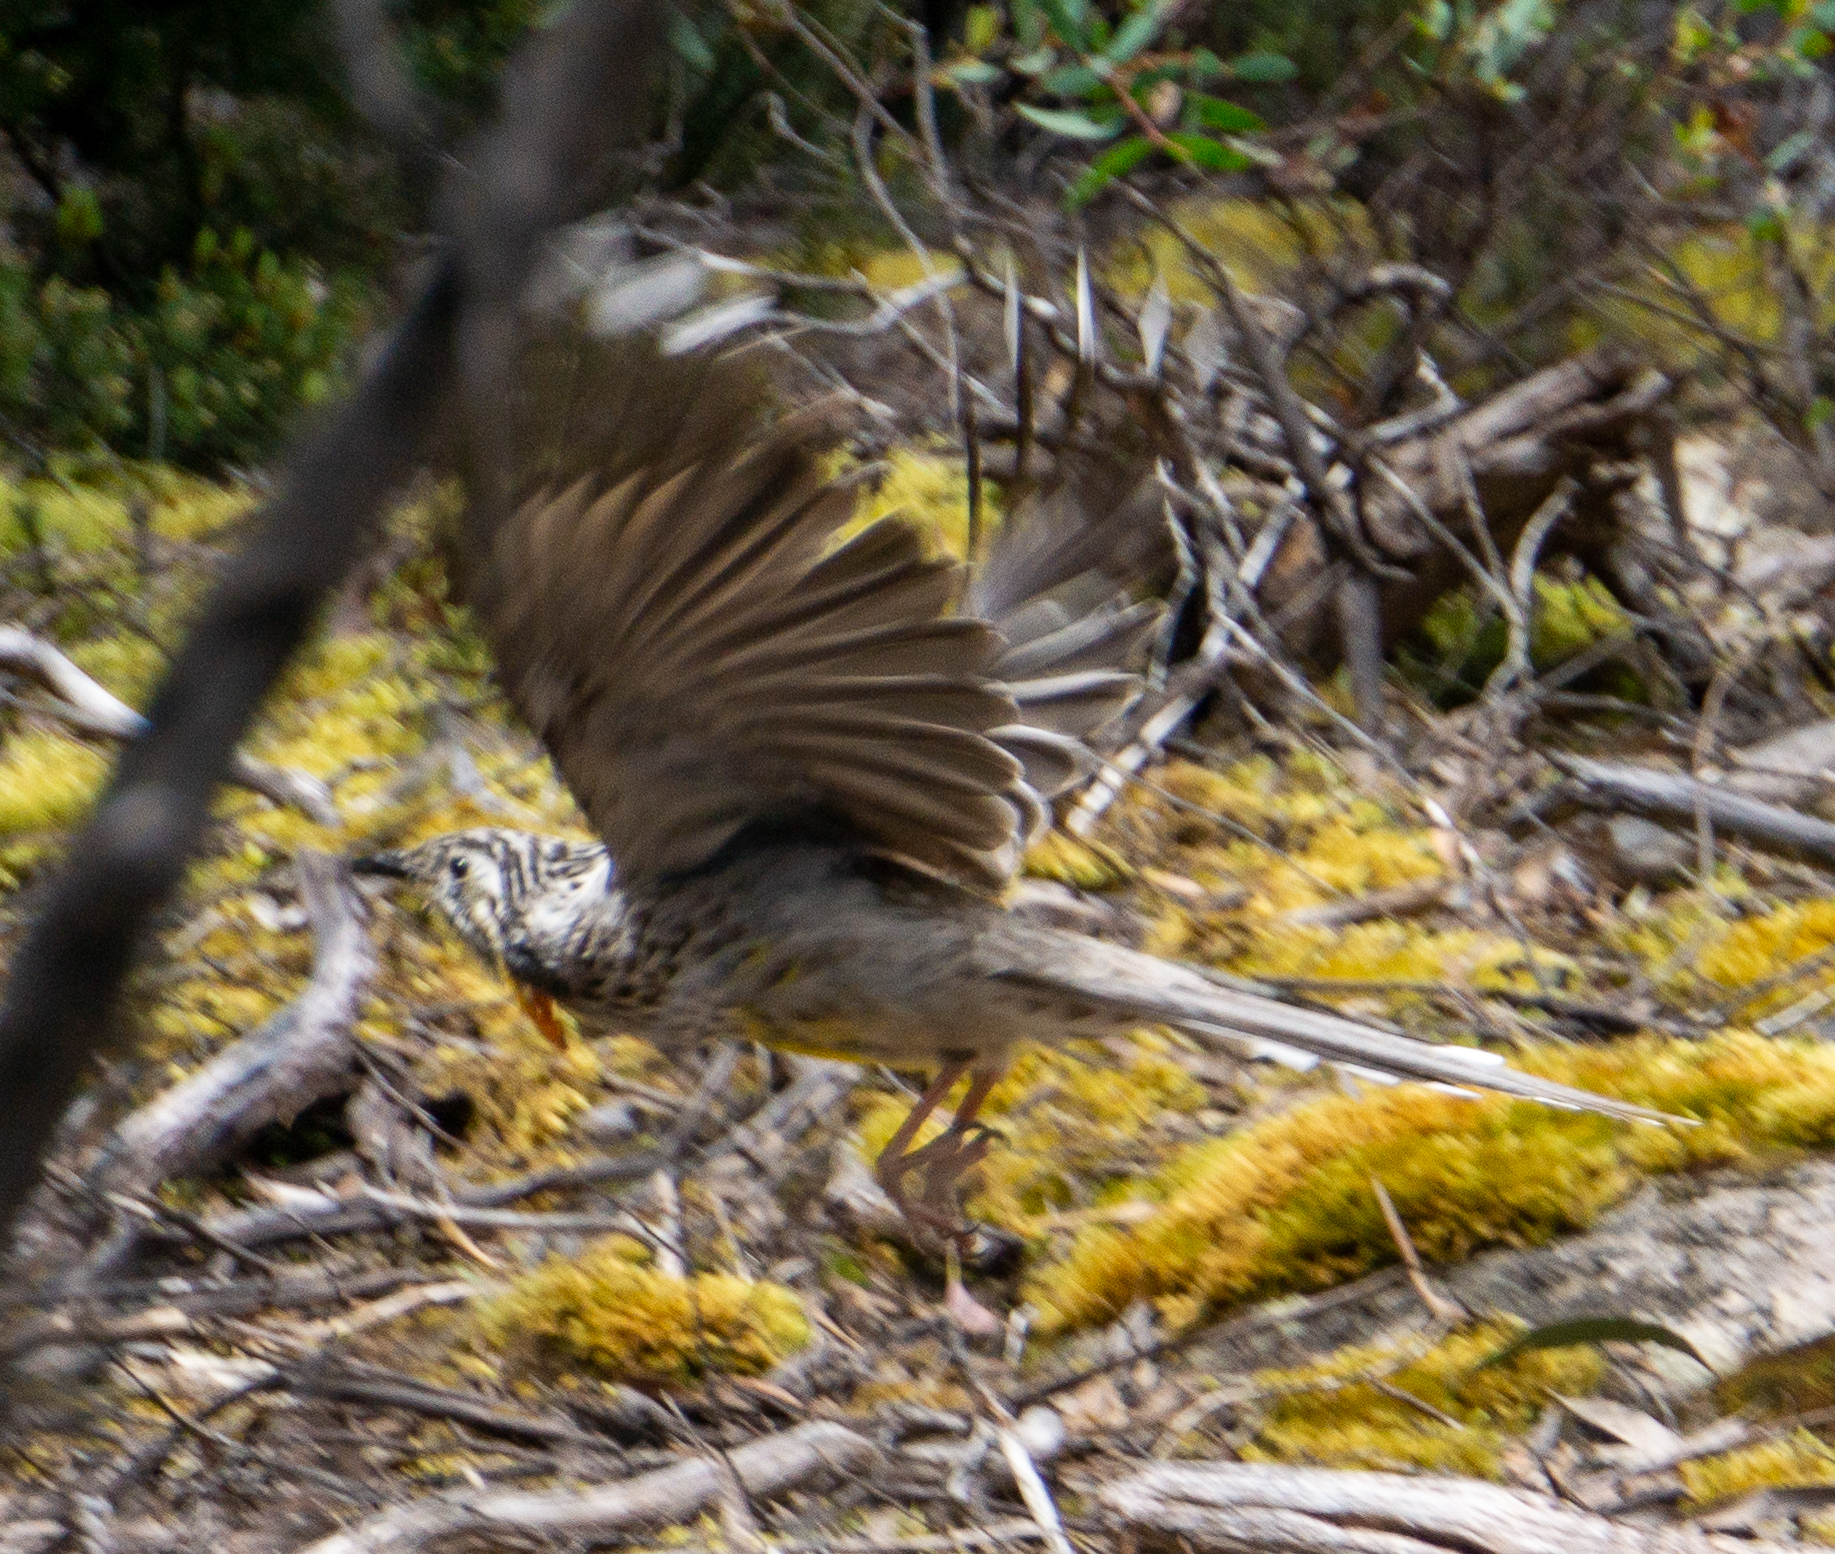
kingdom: Animalia
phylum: Chordata
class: Aves
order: Passeriformes
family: Meliphagidae
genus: Anthochaera
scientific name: Anthochaera paradoxa
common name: Yellow wattlebird
